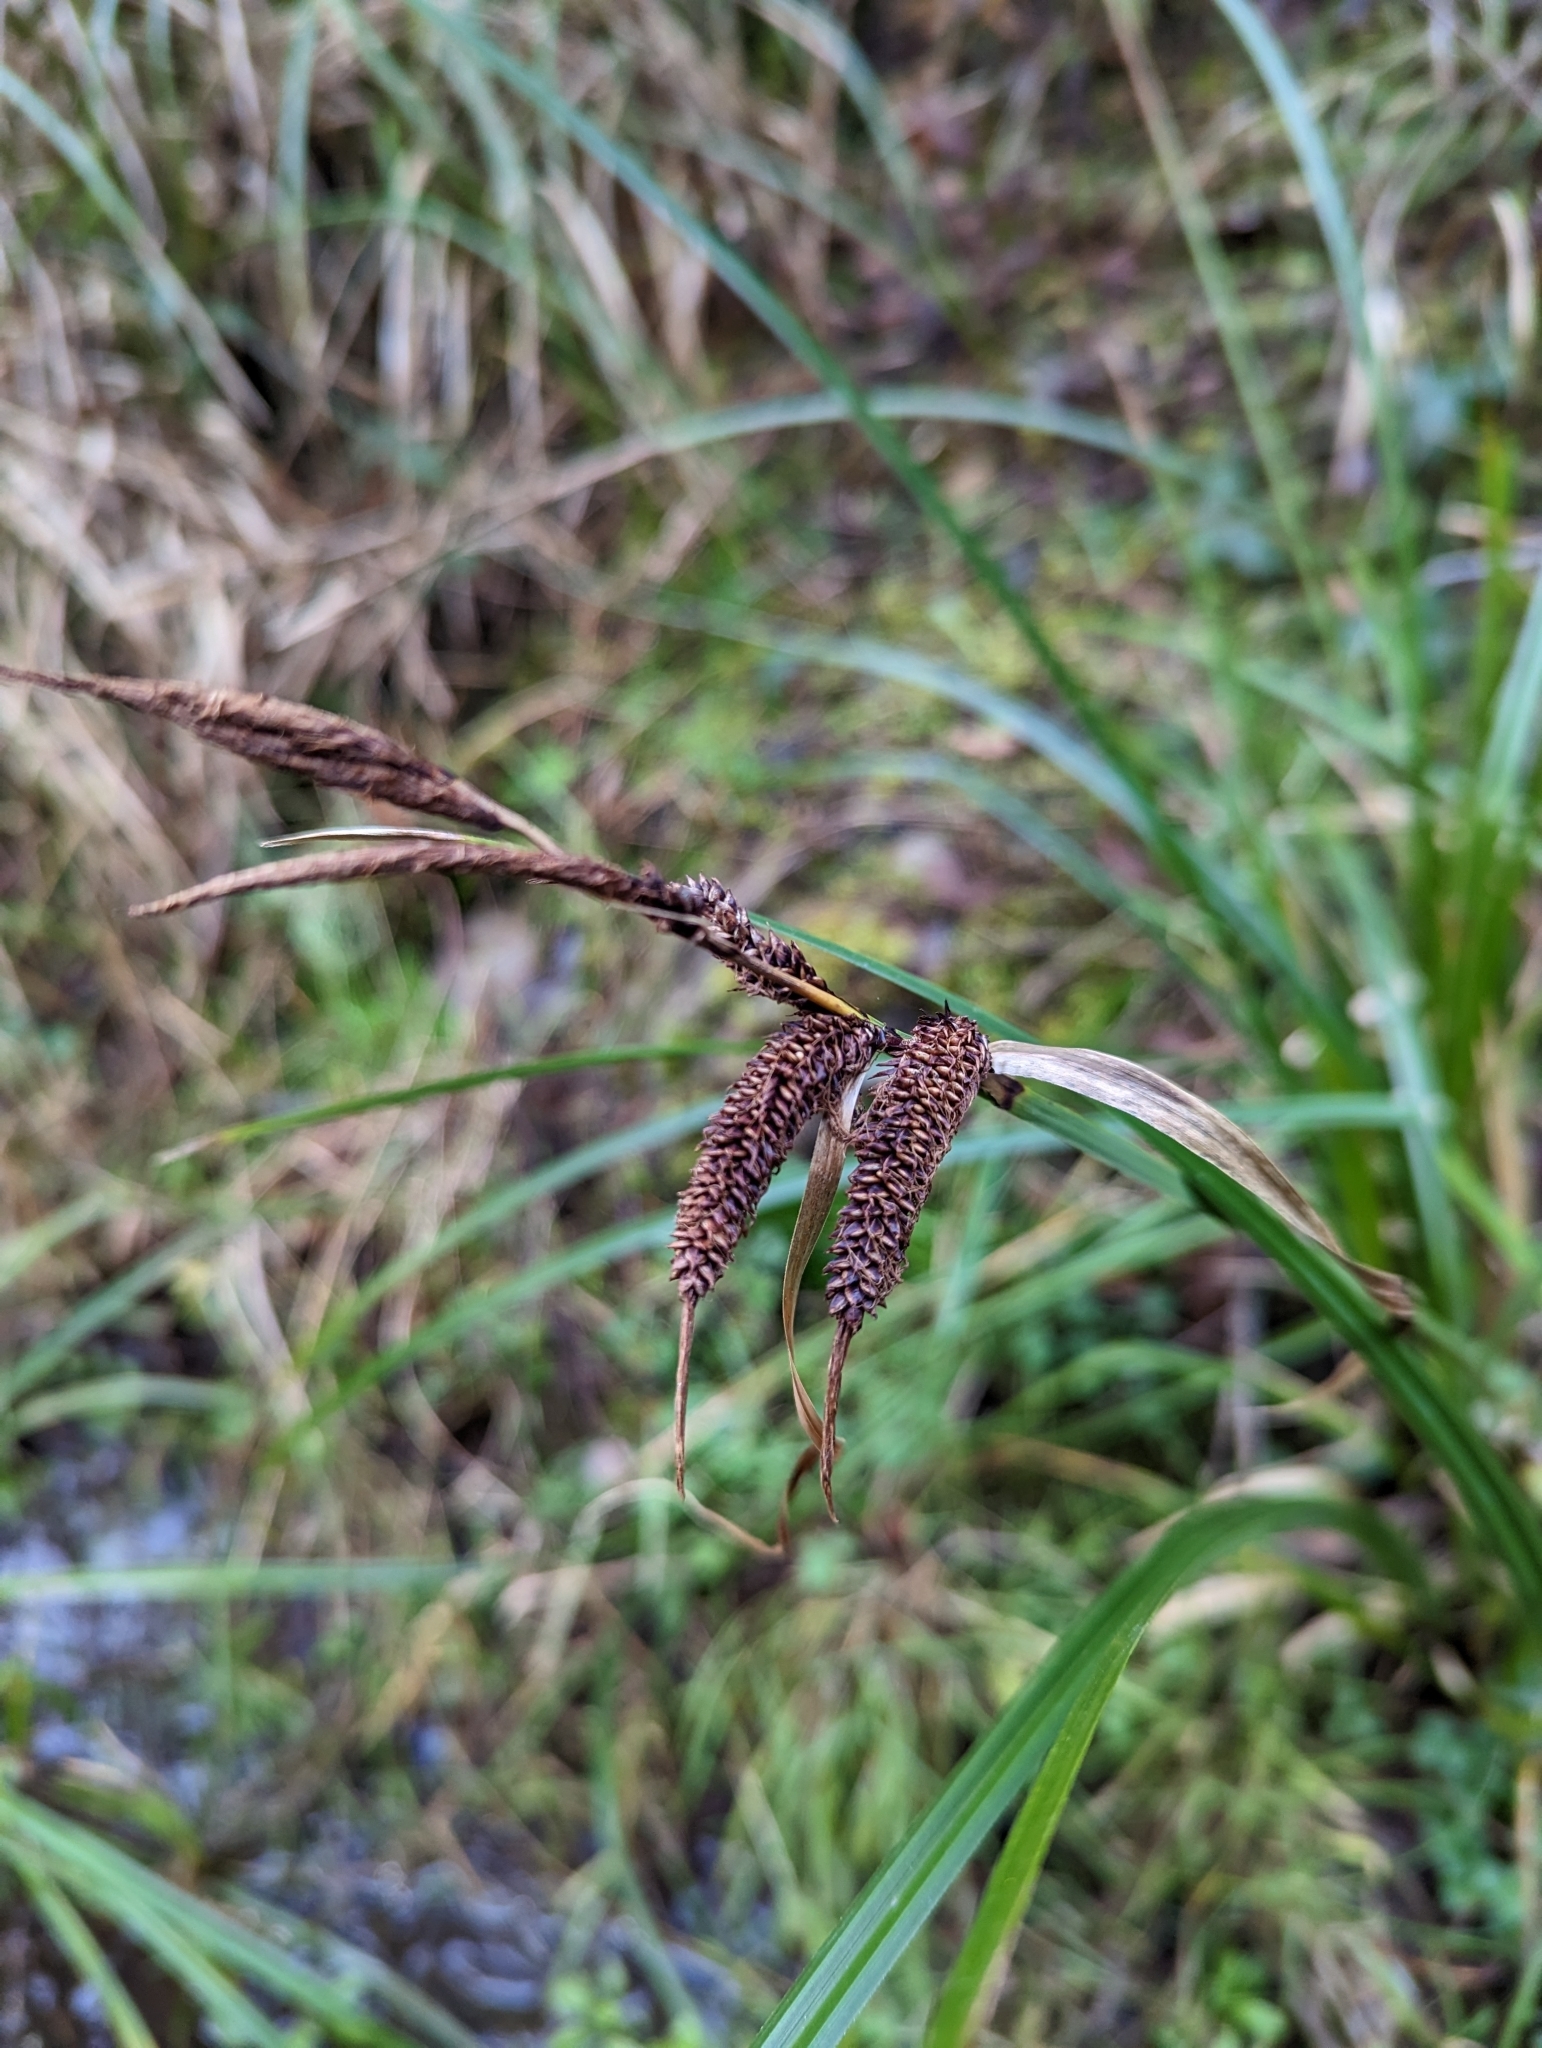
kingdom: Plantae
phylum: Tracheophyta
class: Liliopsida
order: Poales
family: Cyperaceae
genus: Carex
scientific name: Carex obnupta
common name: Slough sedge
